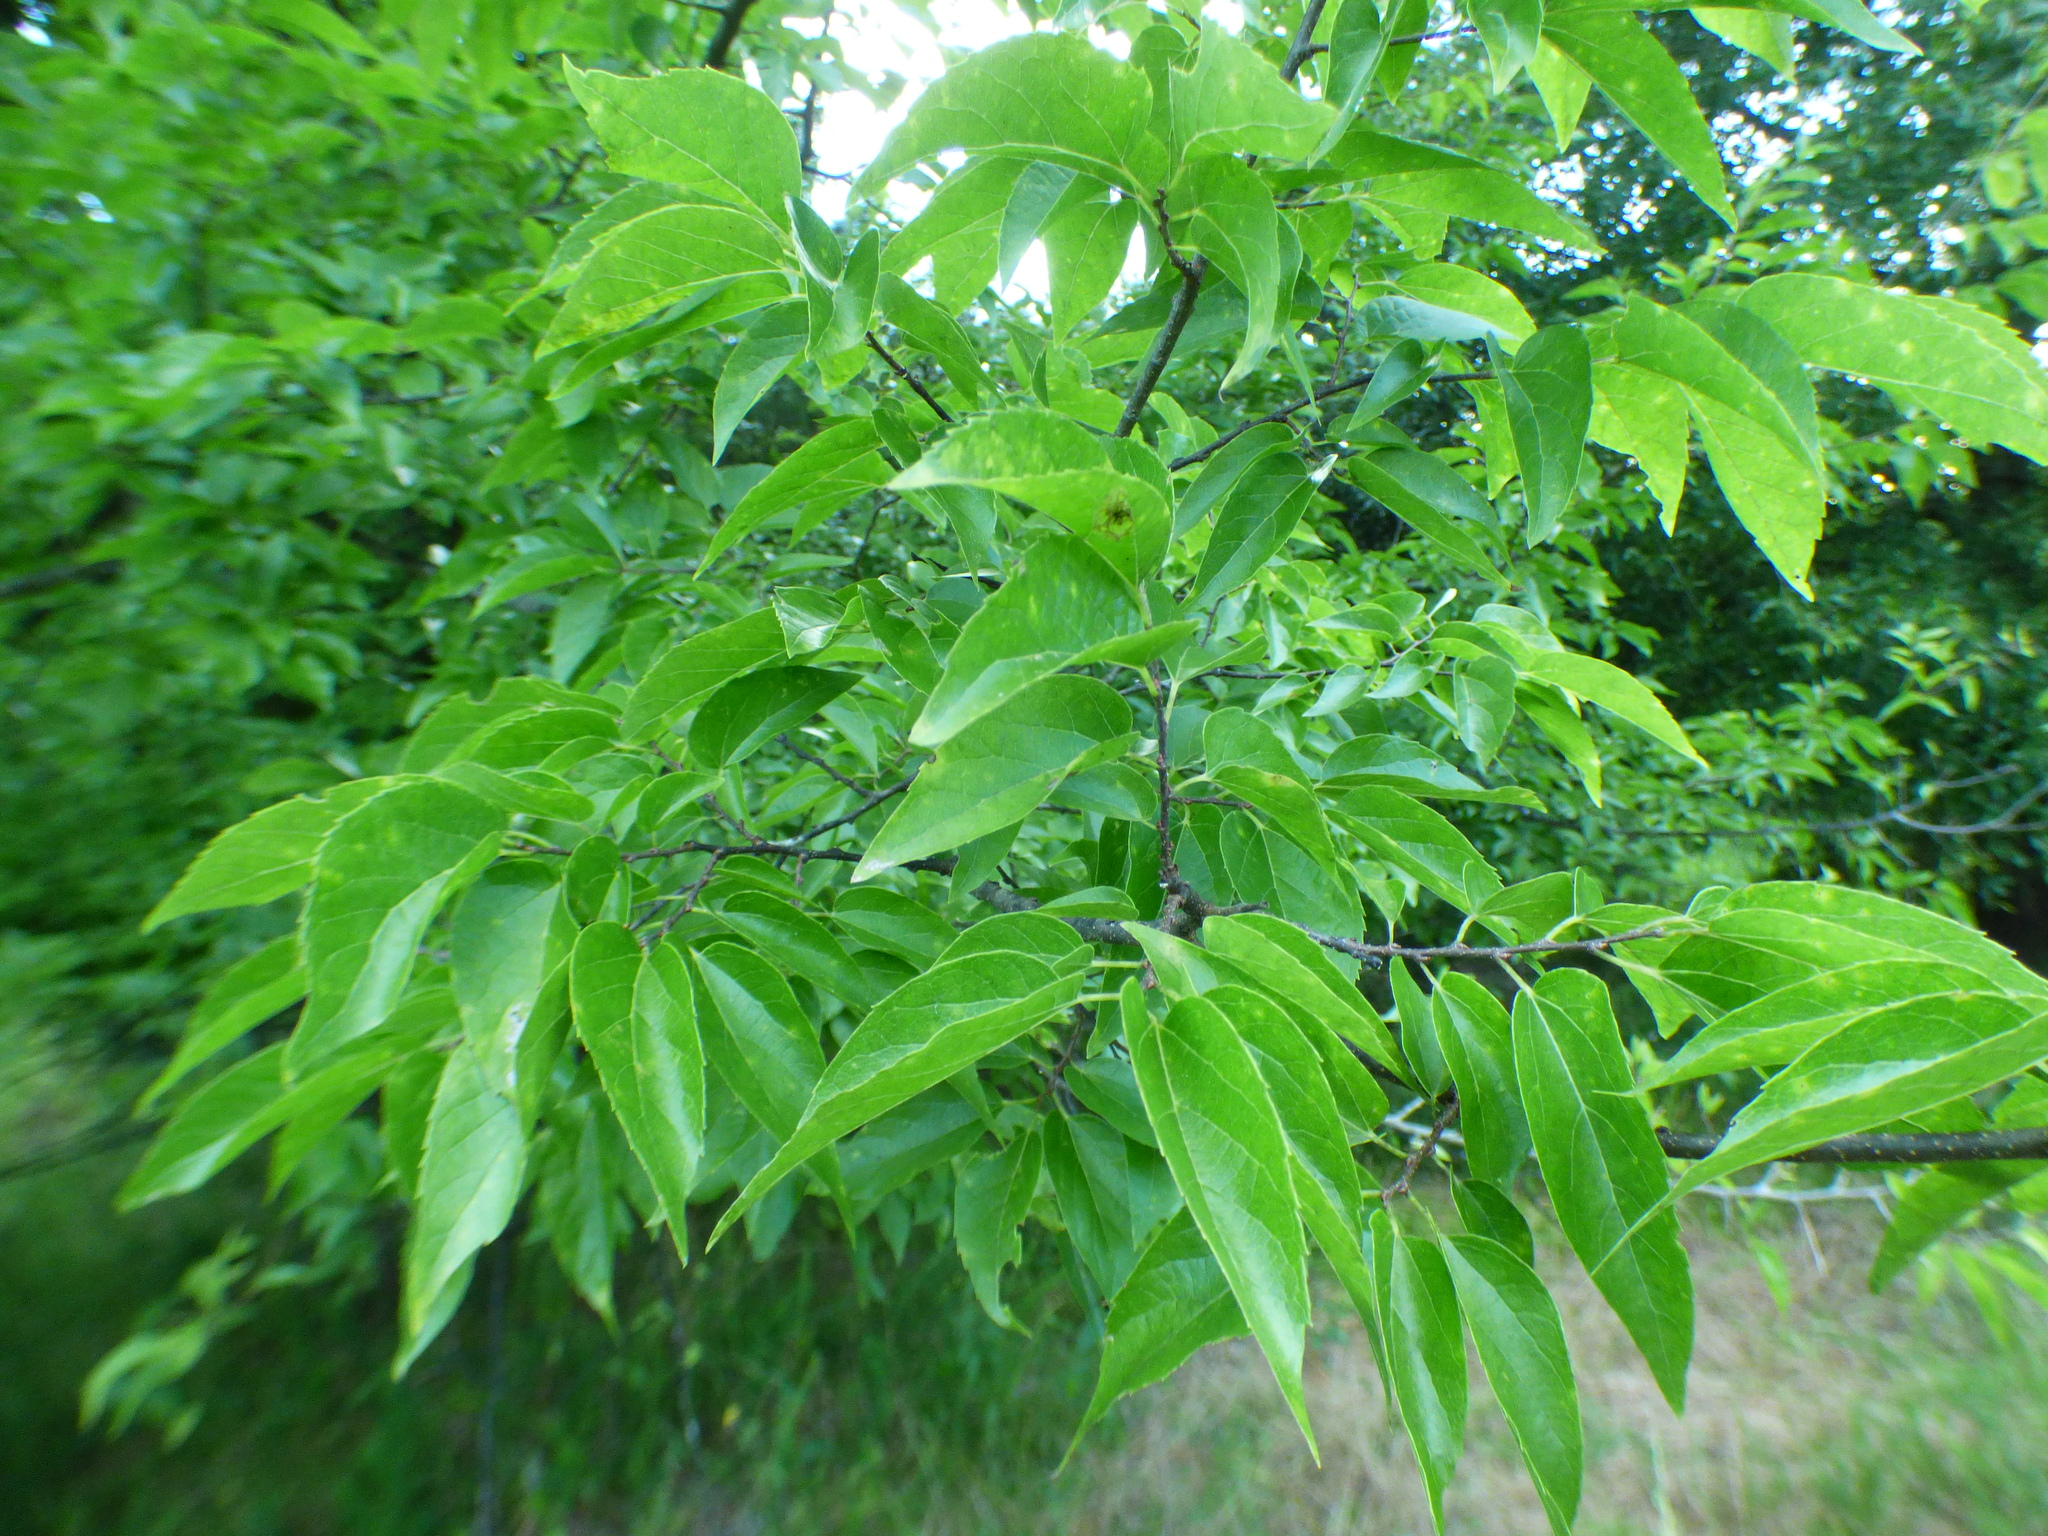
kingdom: Plantae
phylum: Tracheophyta
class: Magnoliopsida
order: Rosales
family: Cannabaceae
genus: Celtis
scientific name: Celtis laevigata
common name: Sugarberry
